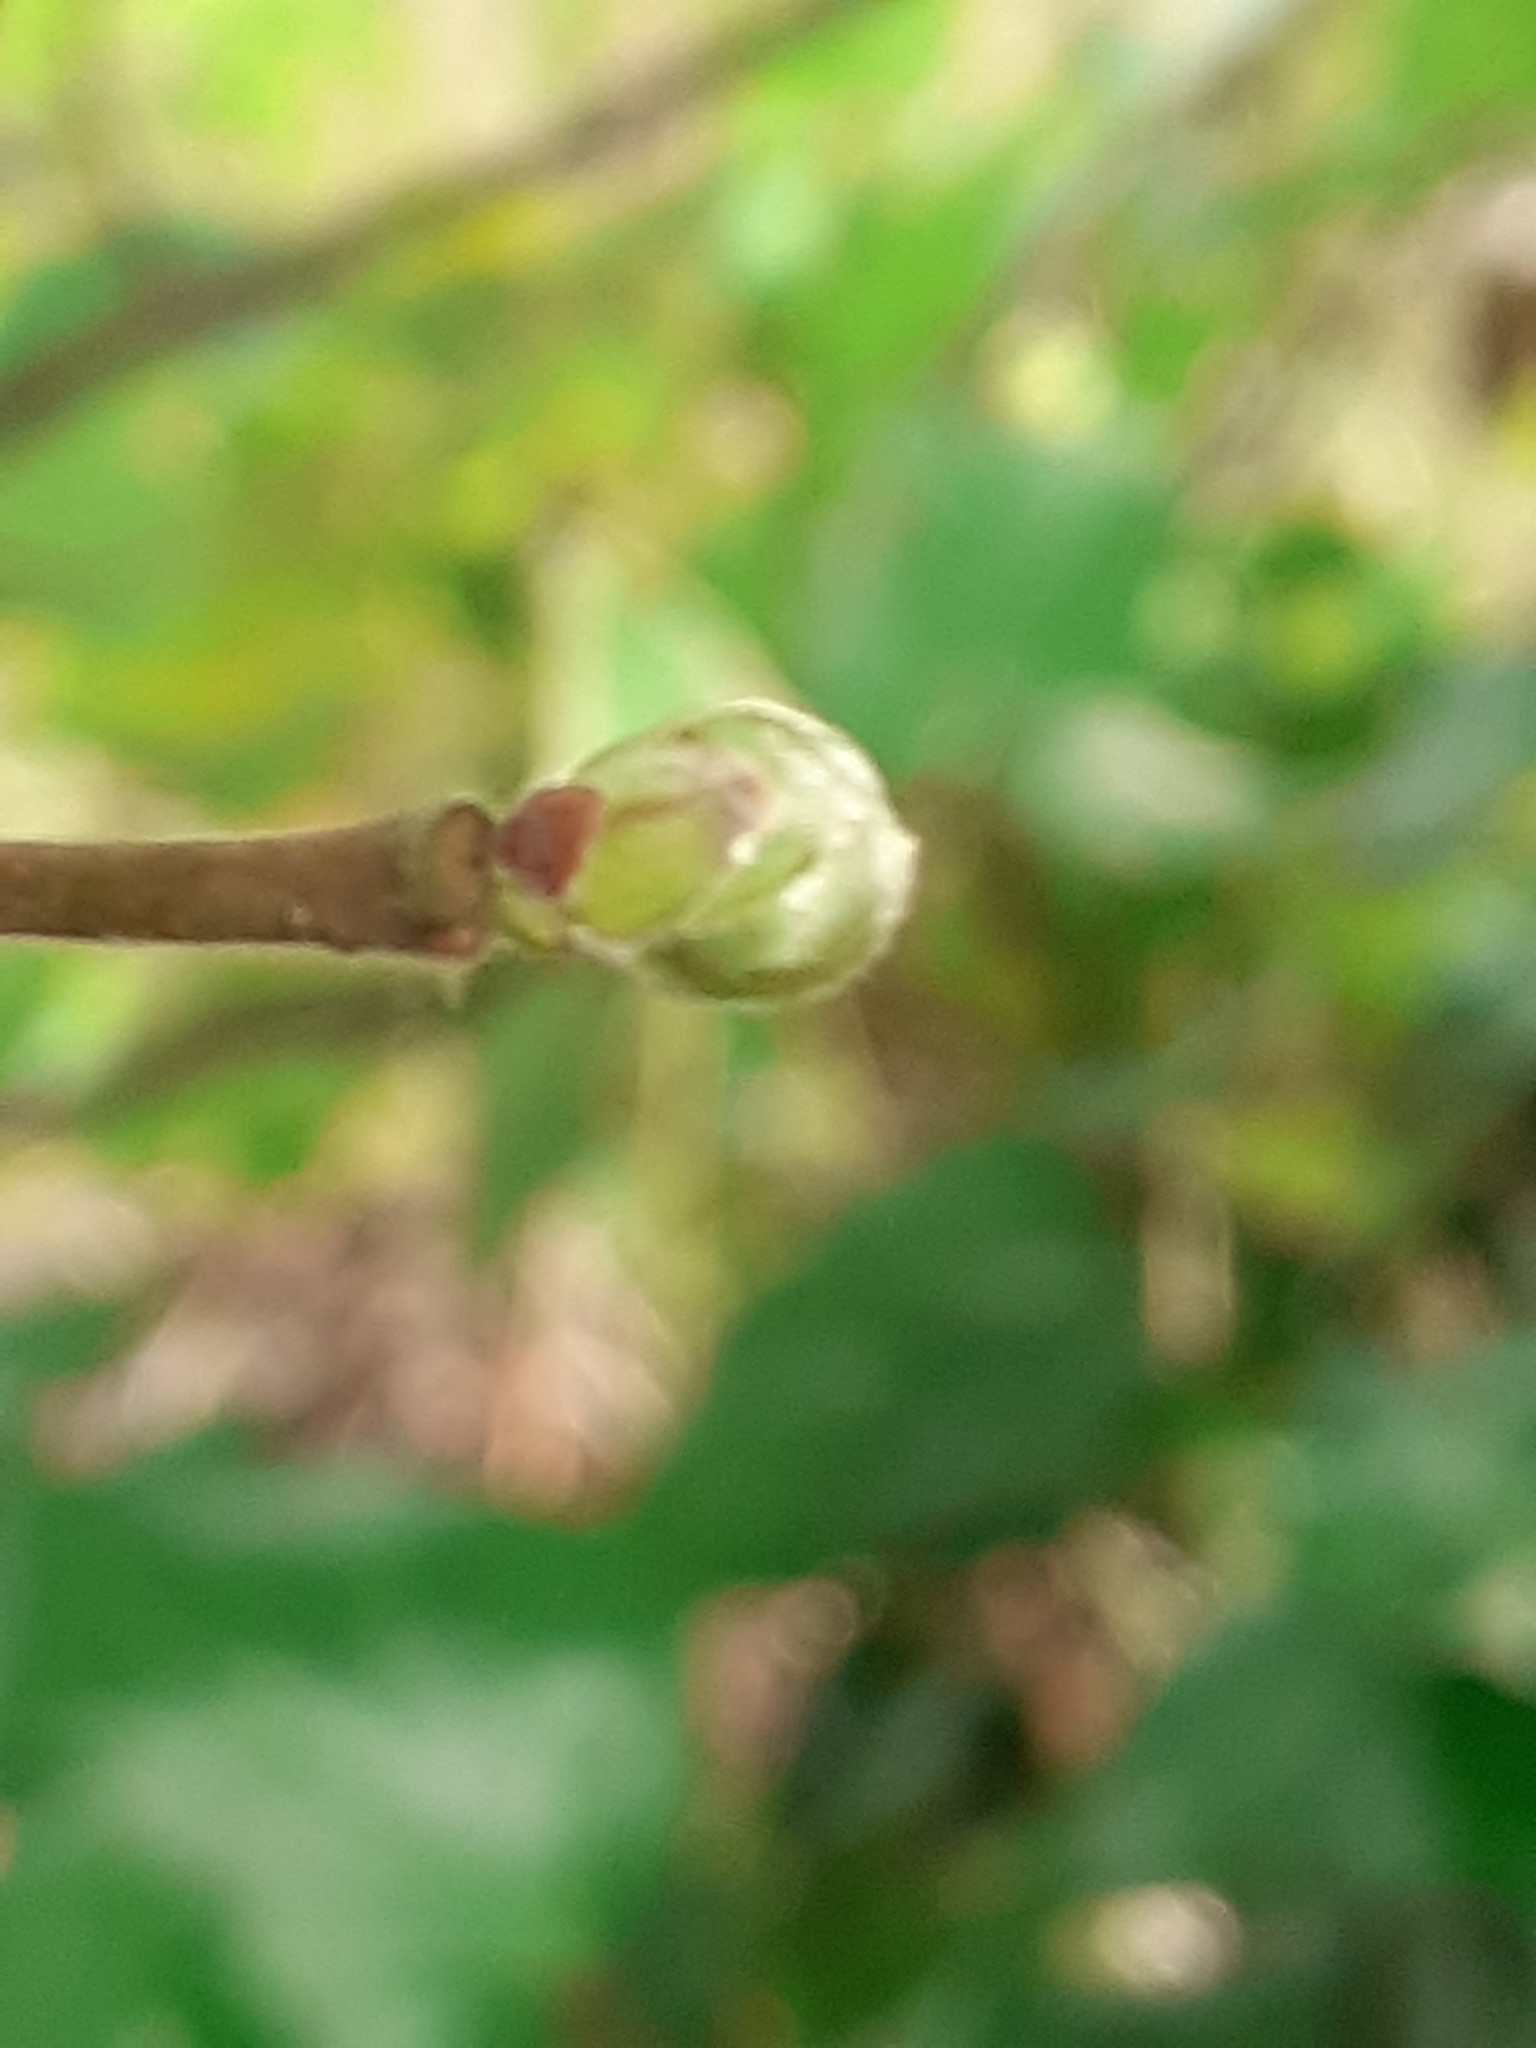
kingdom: Animalia
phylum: Arthropoda
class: Arachnida
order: Trombidiformes
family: Phytoptidae
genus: Phytoptus
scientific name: Phytoptus avellanae
